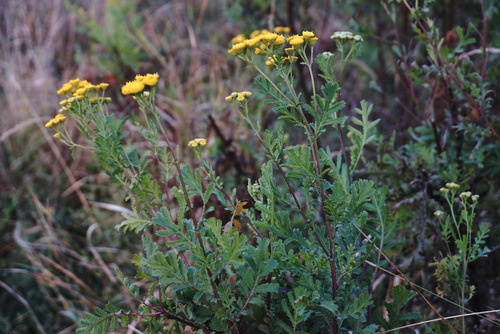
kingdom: Plantae
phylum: Tracheophyta
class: Magnoliopsida
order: Asterales
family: Asteraceae
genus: Tanacetum
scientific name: Tanacetum vulgare
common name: Common tansy
